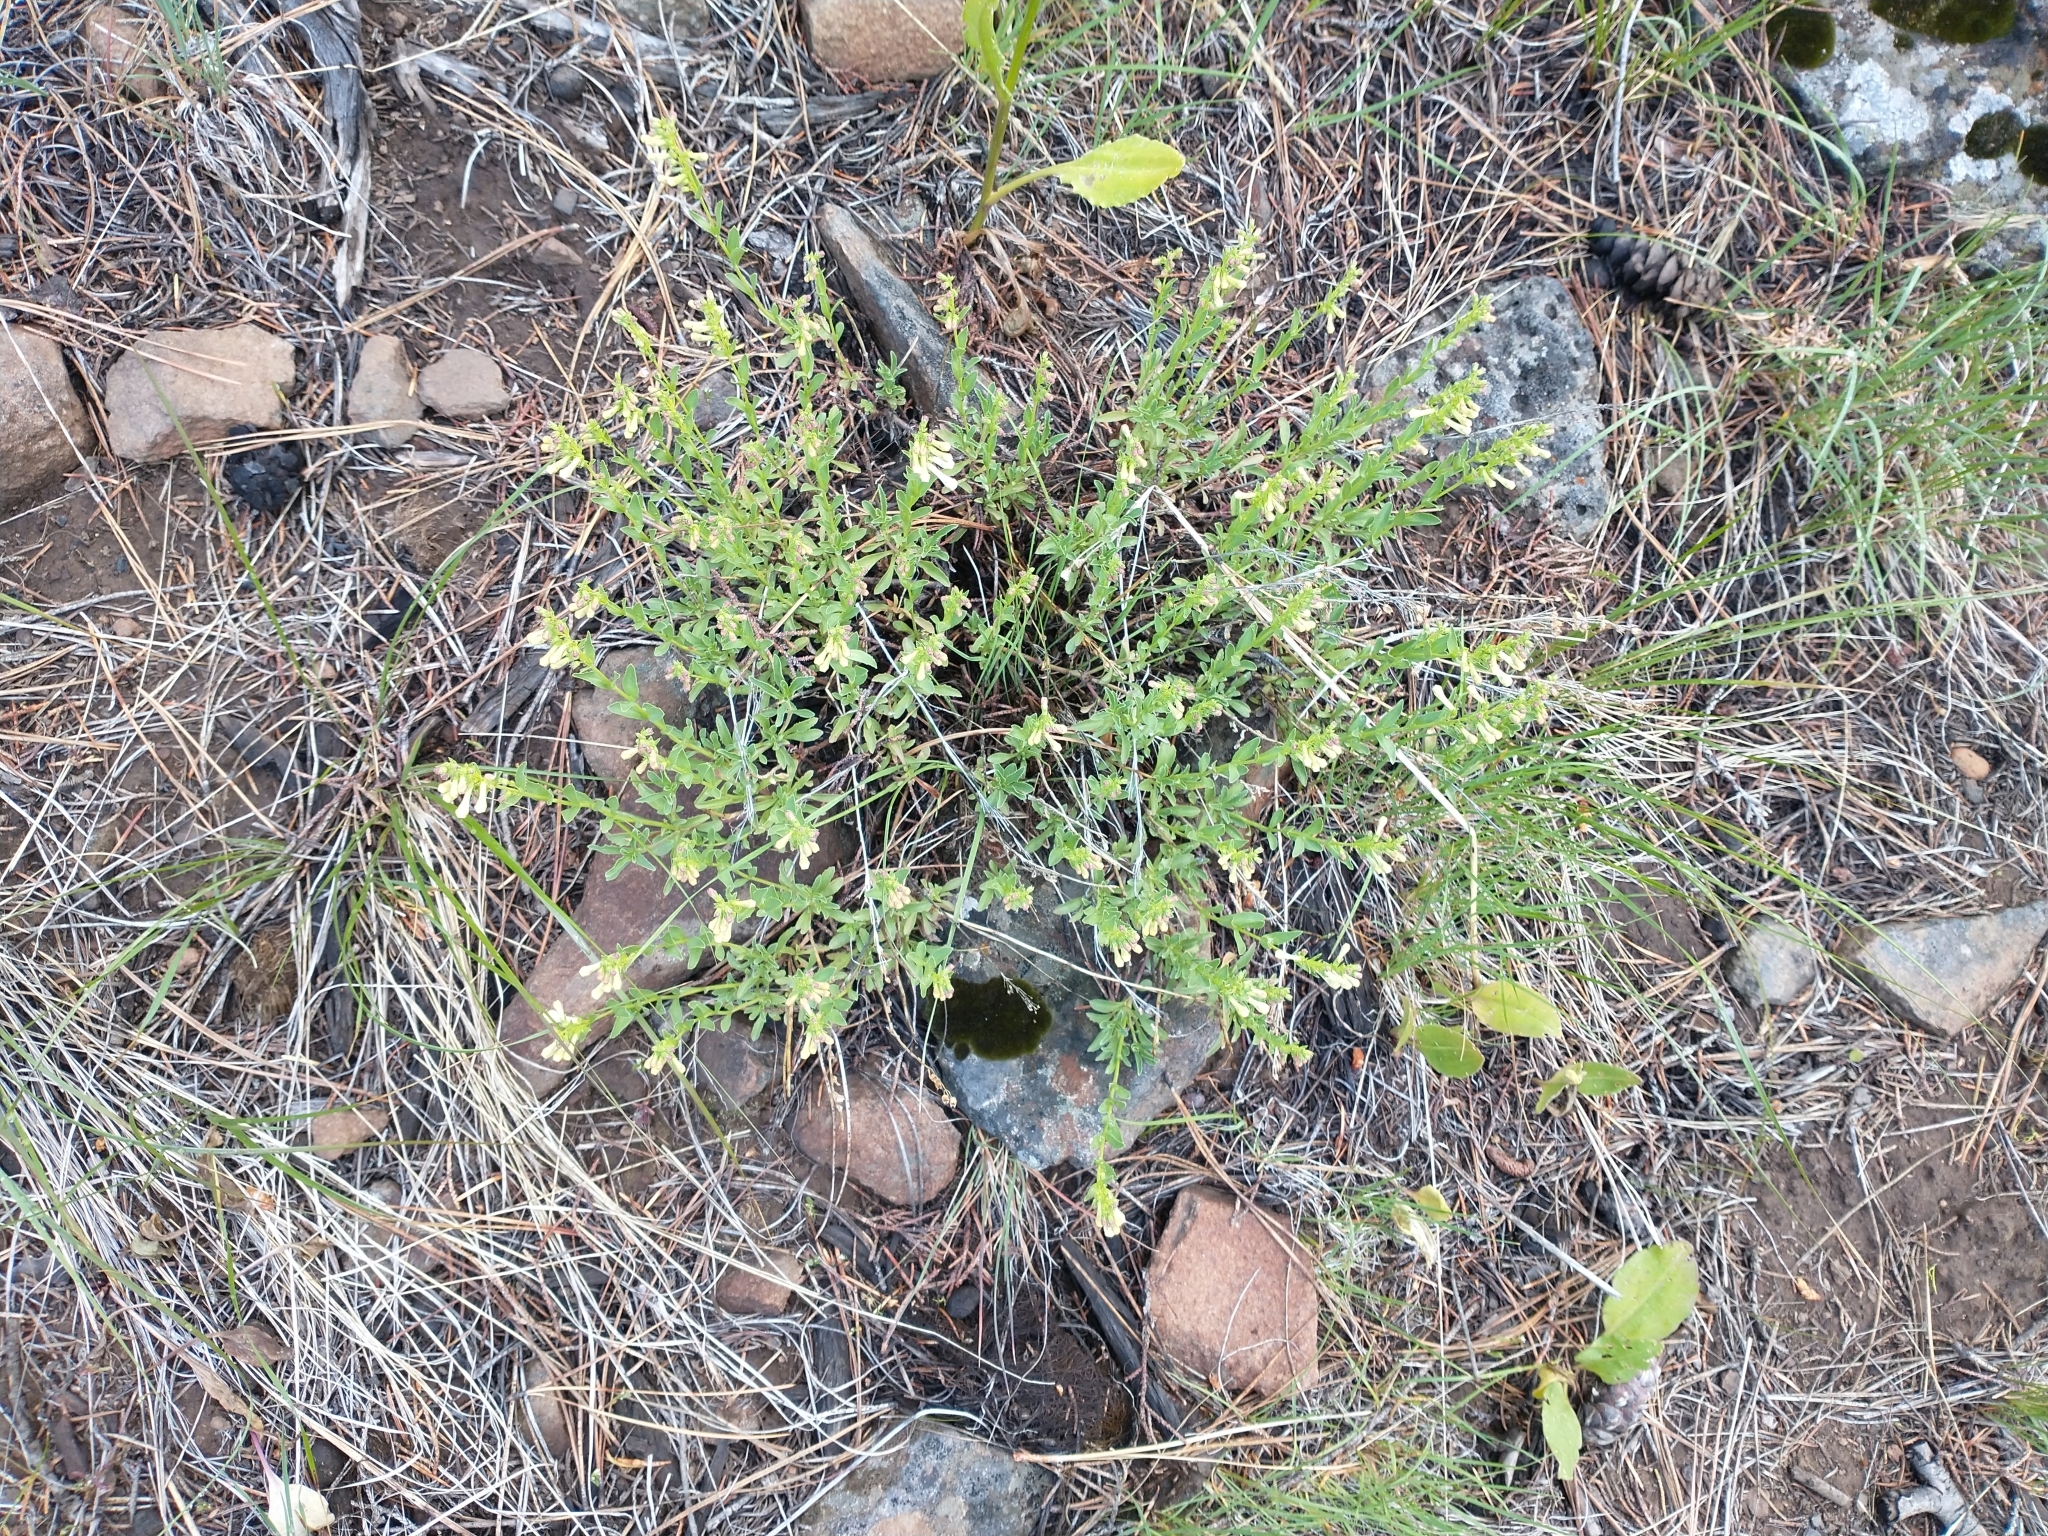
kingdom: Plantae
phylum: Tracheophyta
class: Magnoliopsida
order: Lamiales
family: Plantaginaceae
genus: Penstemon
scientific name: Penstemon deustus
